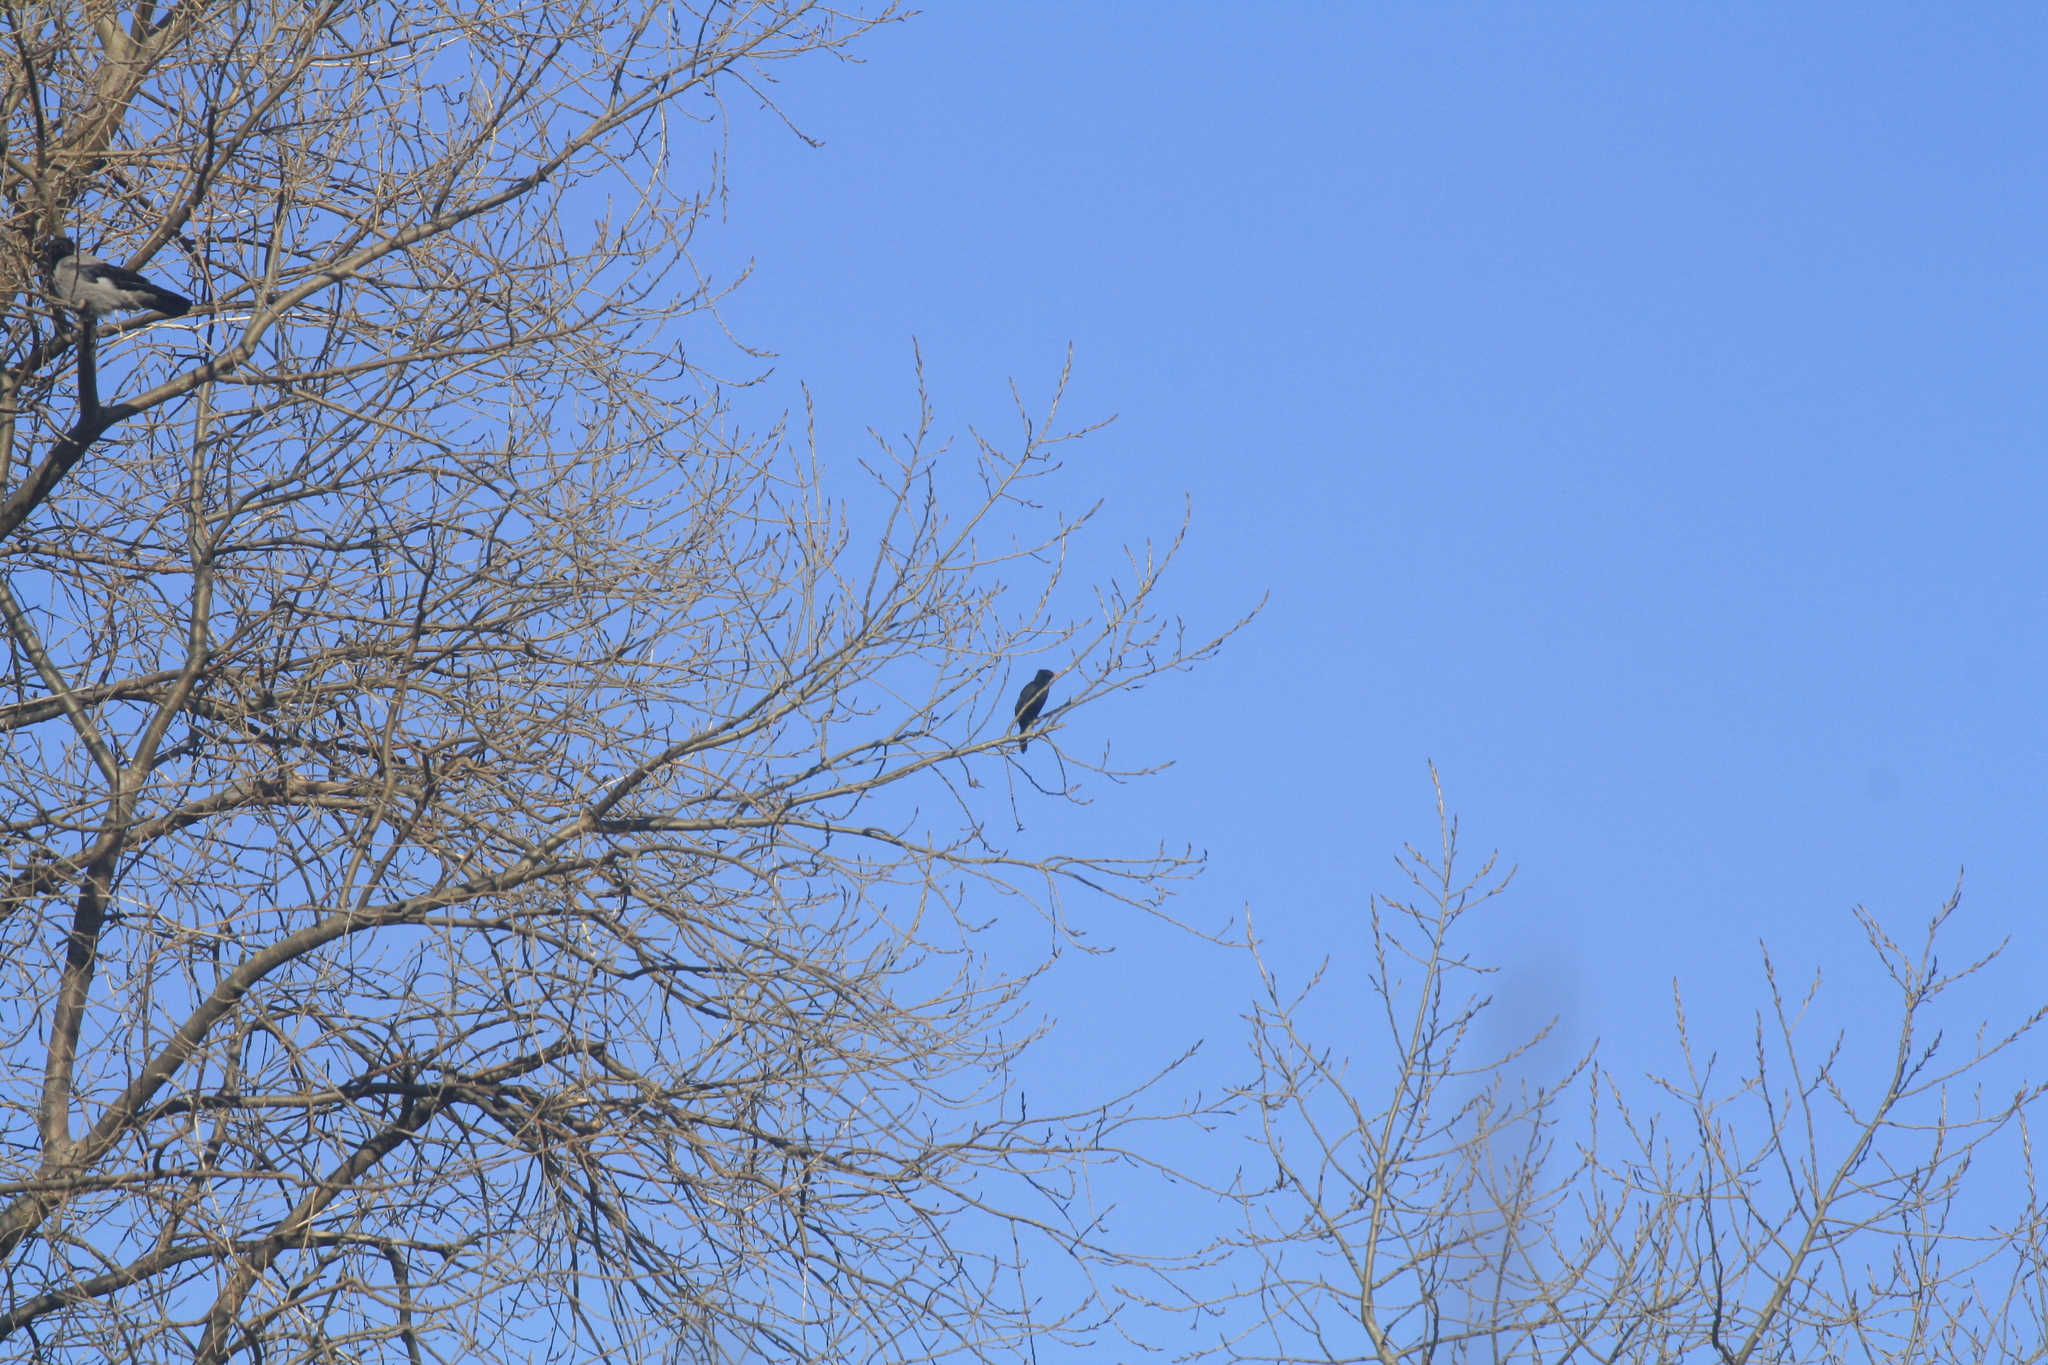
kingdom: Animalia
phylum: Chordata
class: Aves
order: Passeriformes
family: Turdidae
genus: Turdus
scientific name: Turdus merula
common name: Common blackbird
